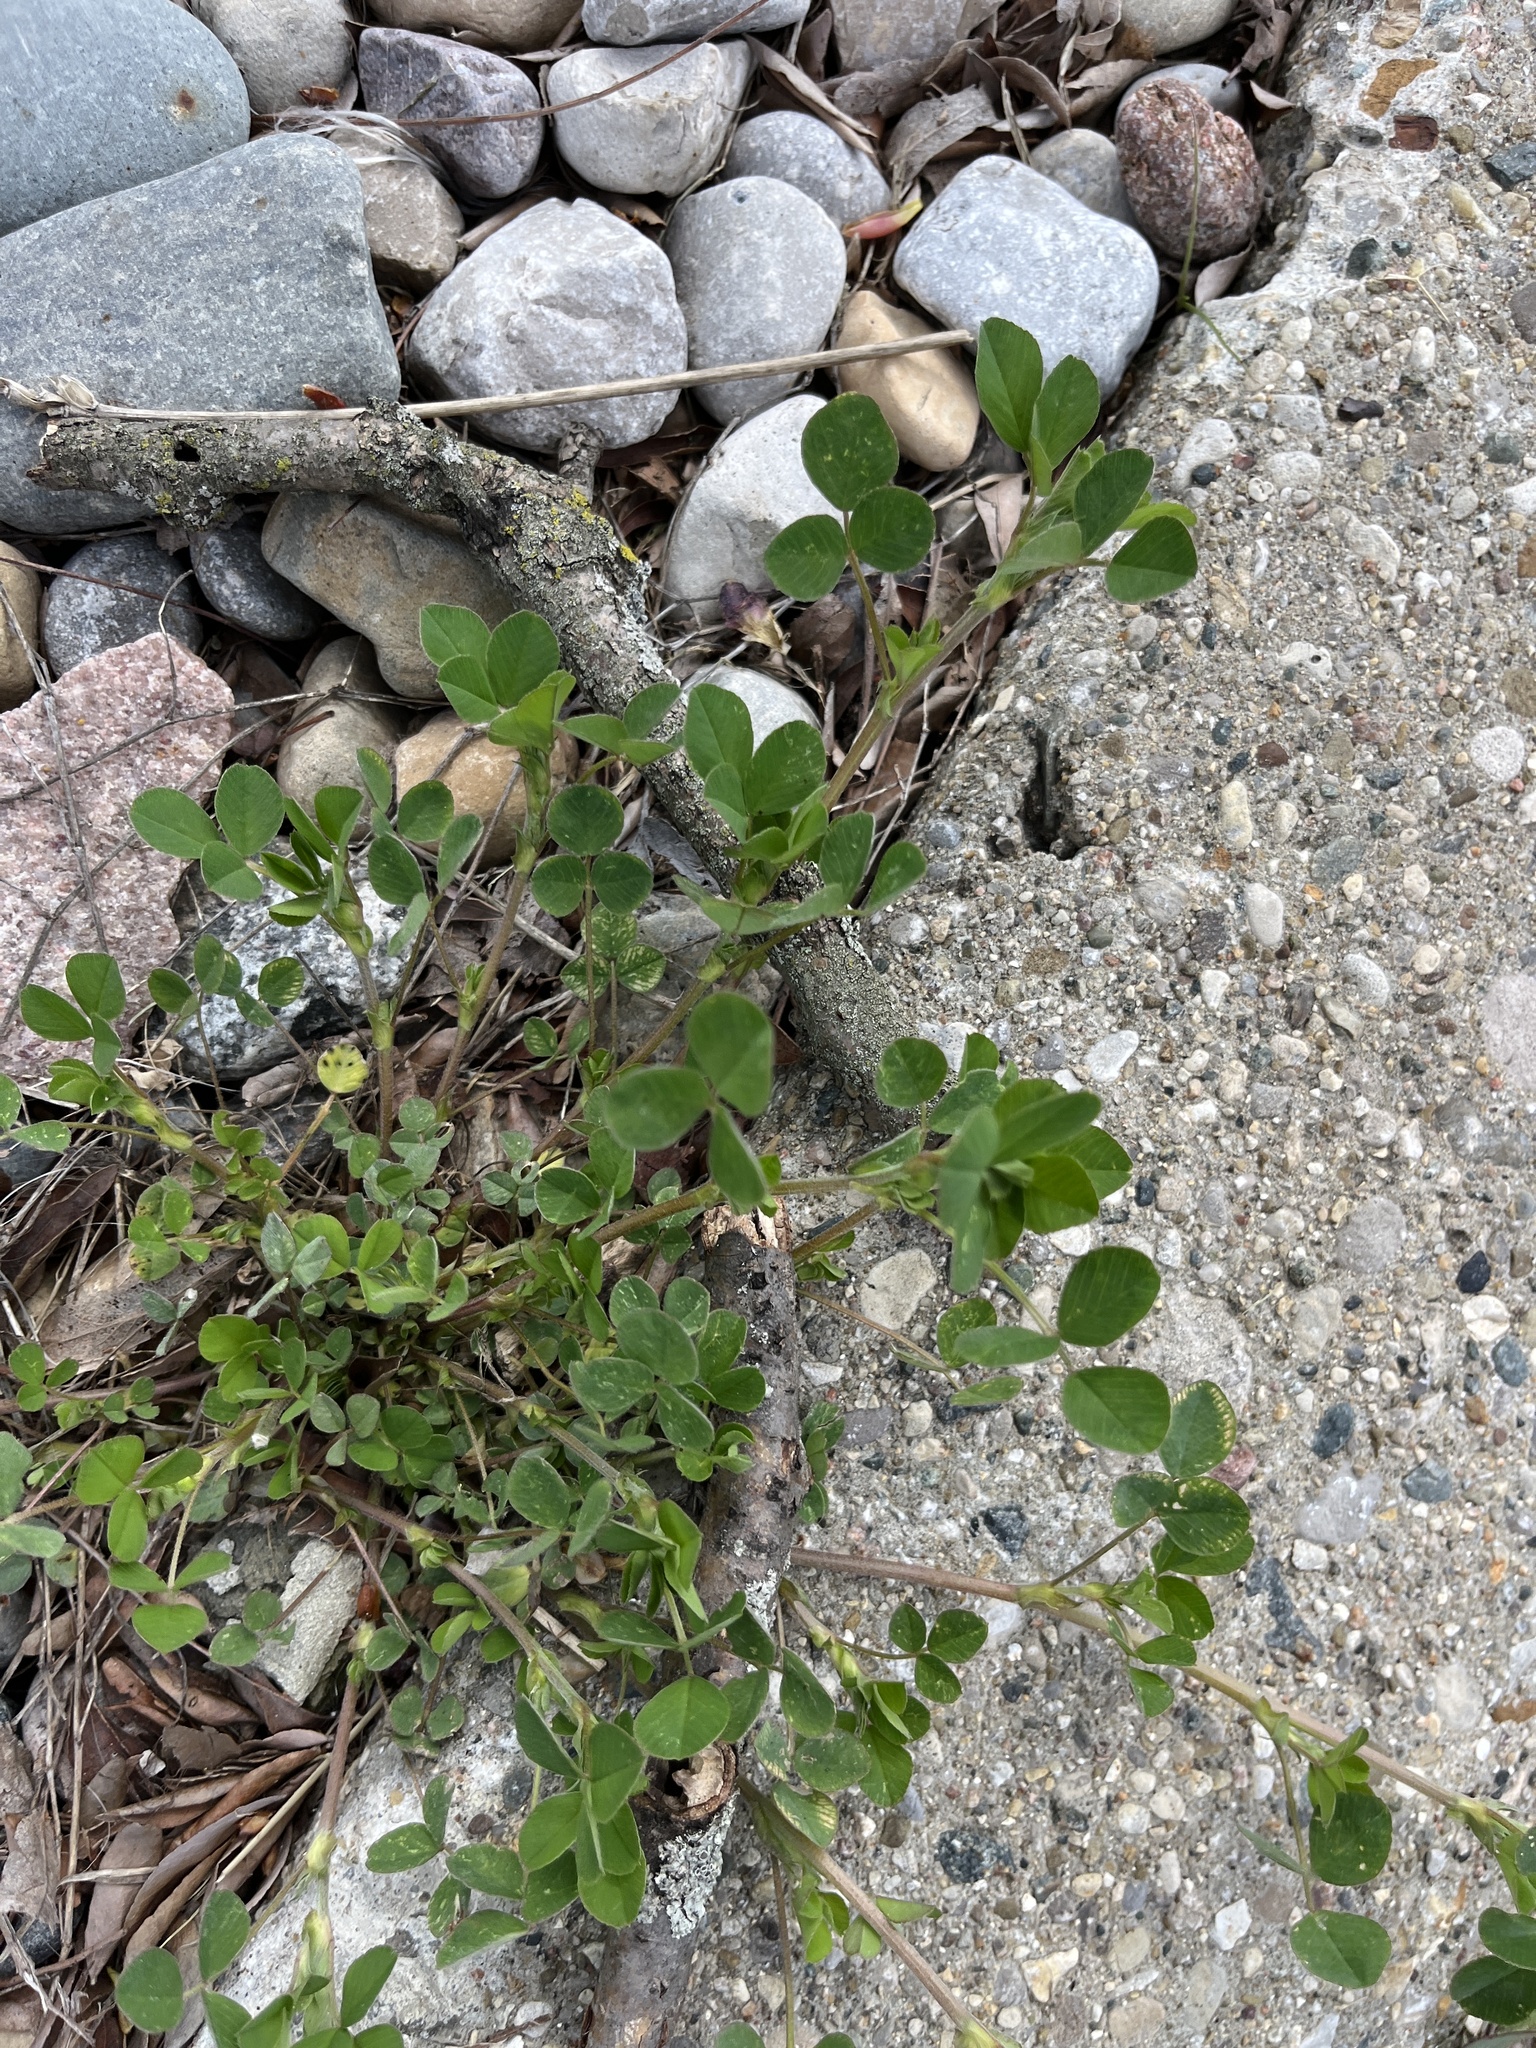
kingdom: Plantae
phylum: Tracheophyta
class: Magnoliopsida
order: Fabales
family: Fabaceae
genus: Medicago
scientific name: Medicago lupulina
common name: Black medick
